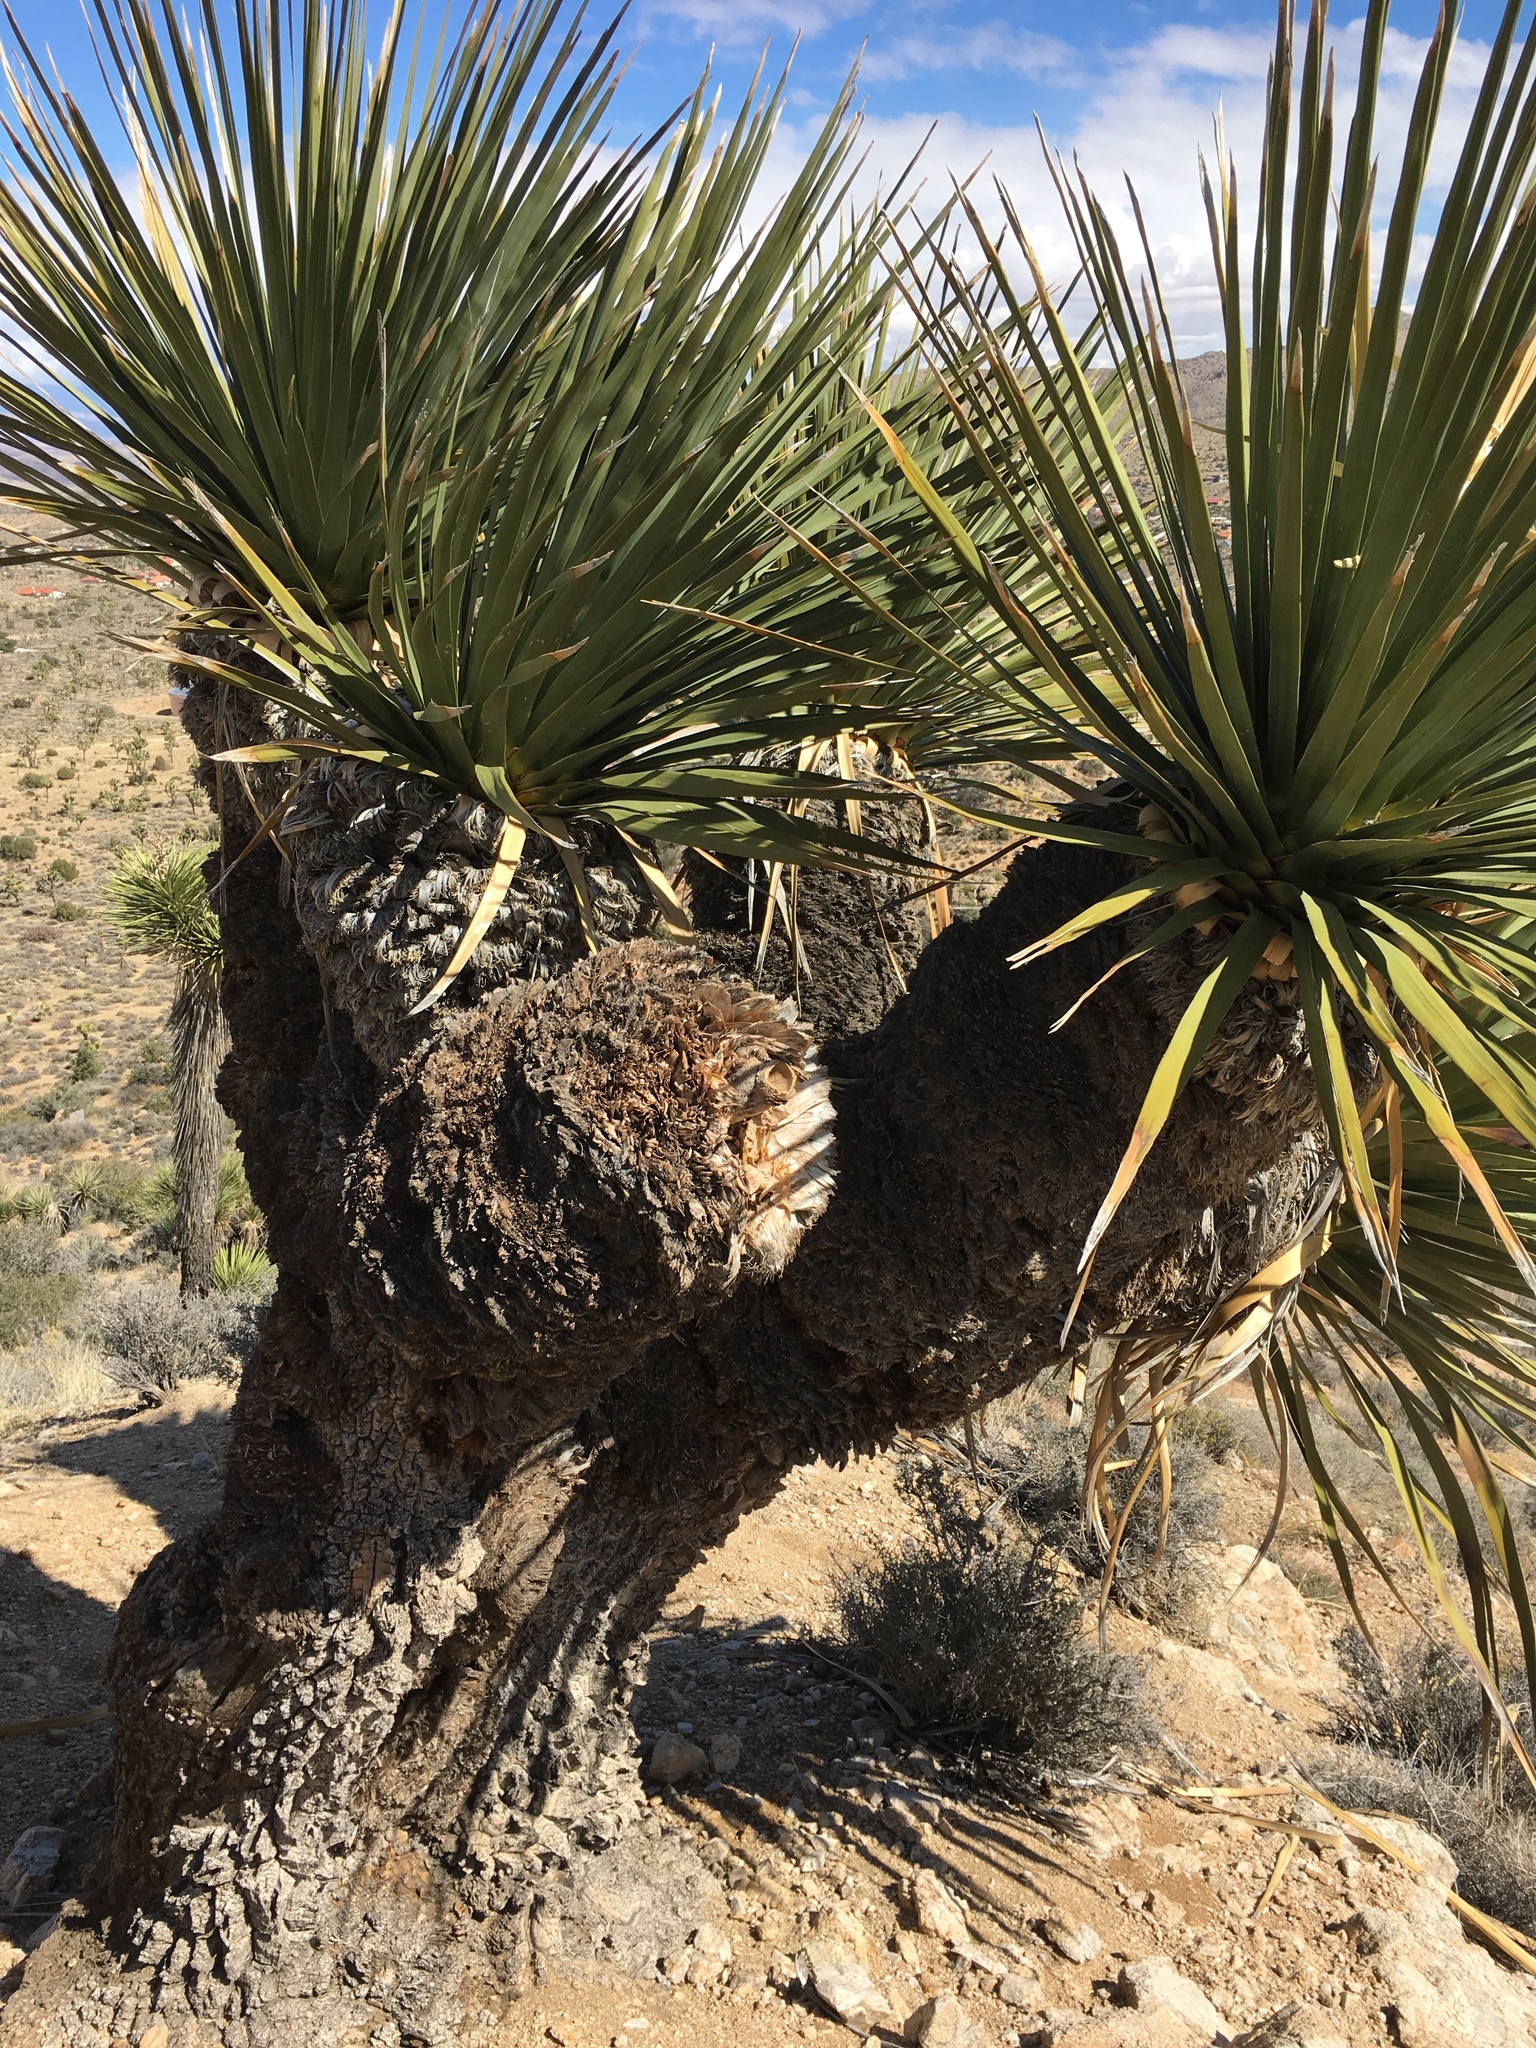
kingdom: Plantae
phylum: Tracheophyta
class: Liliopsida
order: Asparagales
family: Asparagaceae
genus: Nolina
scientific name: Nolina parryi
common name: Parry nolina
